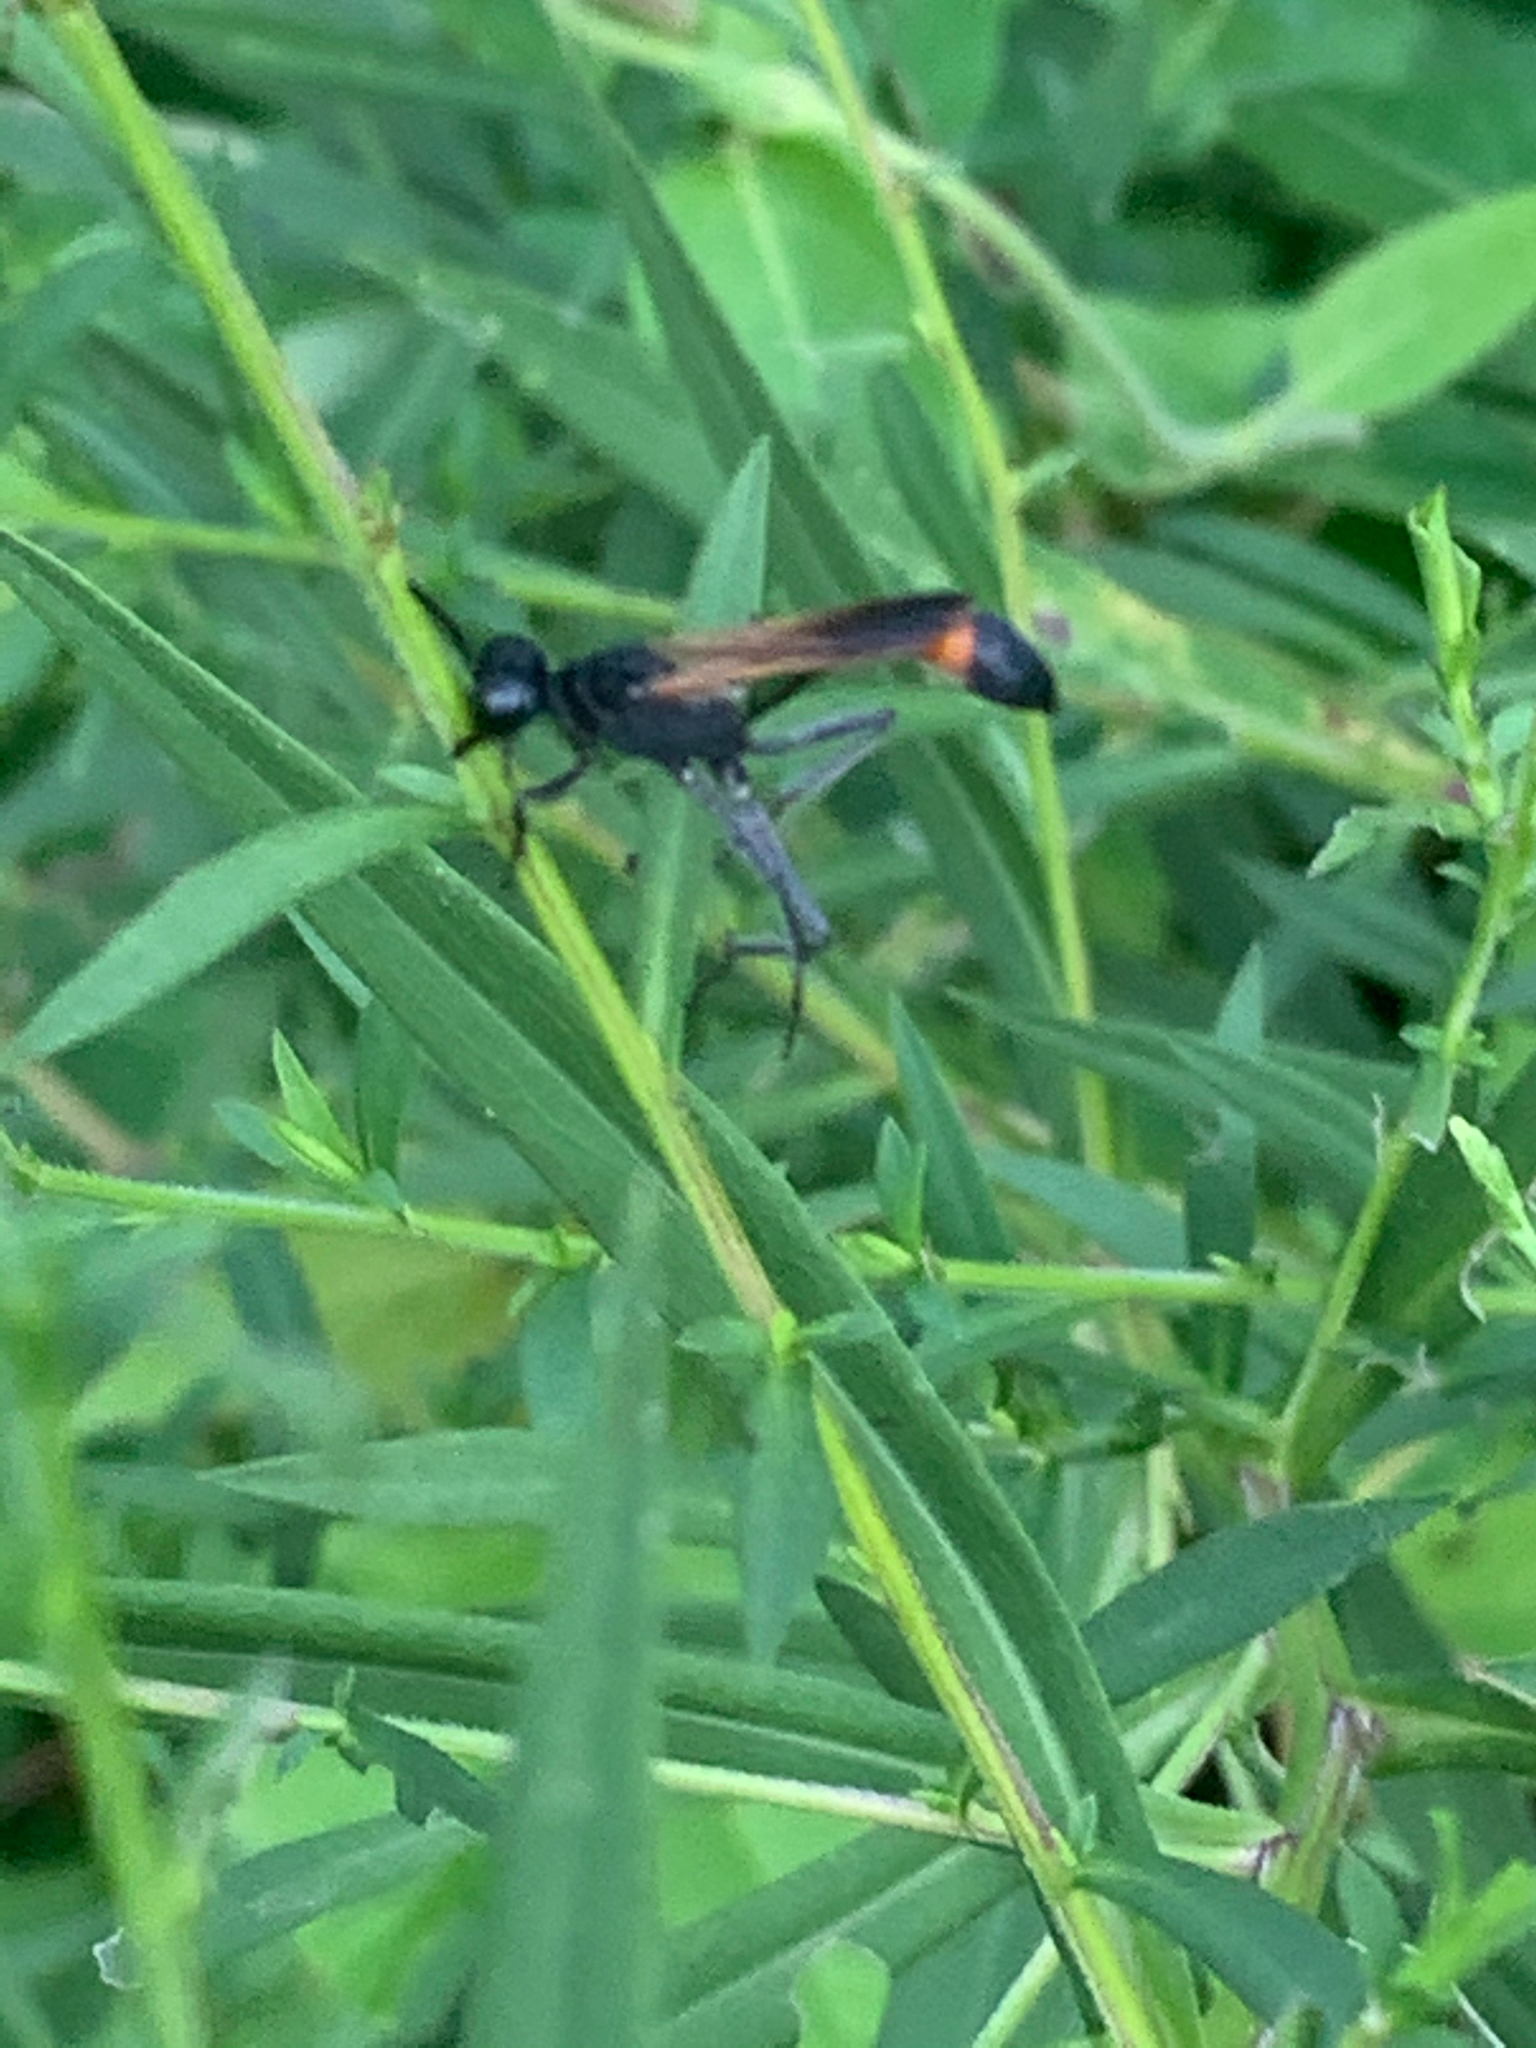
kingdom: Animalia
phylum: Arthropoda
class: Insecta
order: Hymenoptera
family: Sphecidae
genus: Ammophila
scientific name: Ammophila pictipennis
